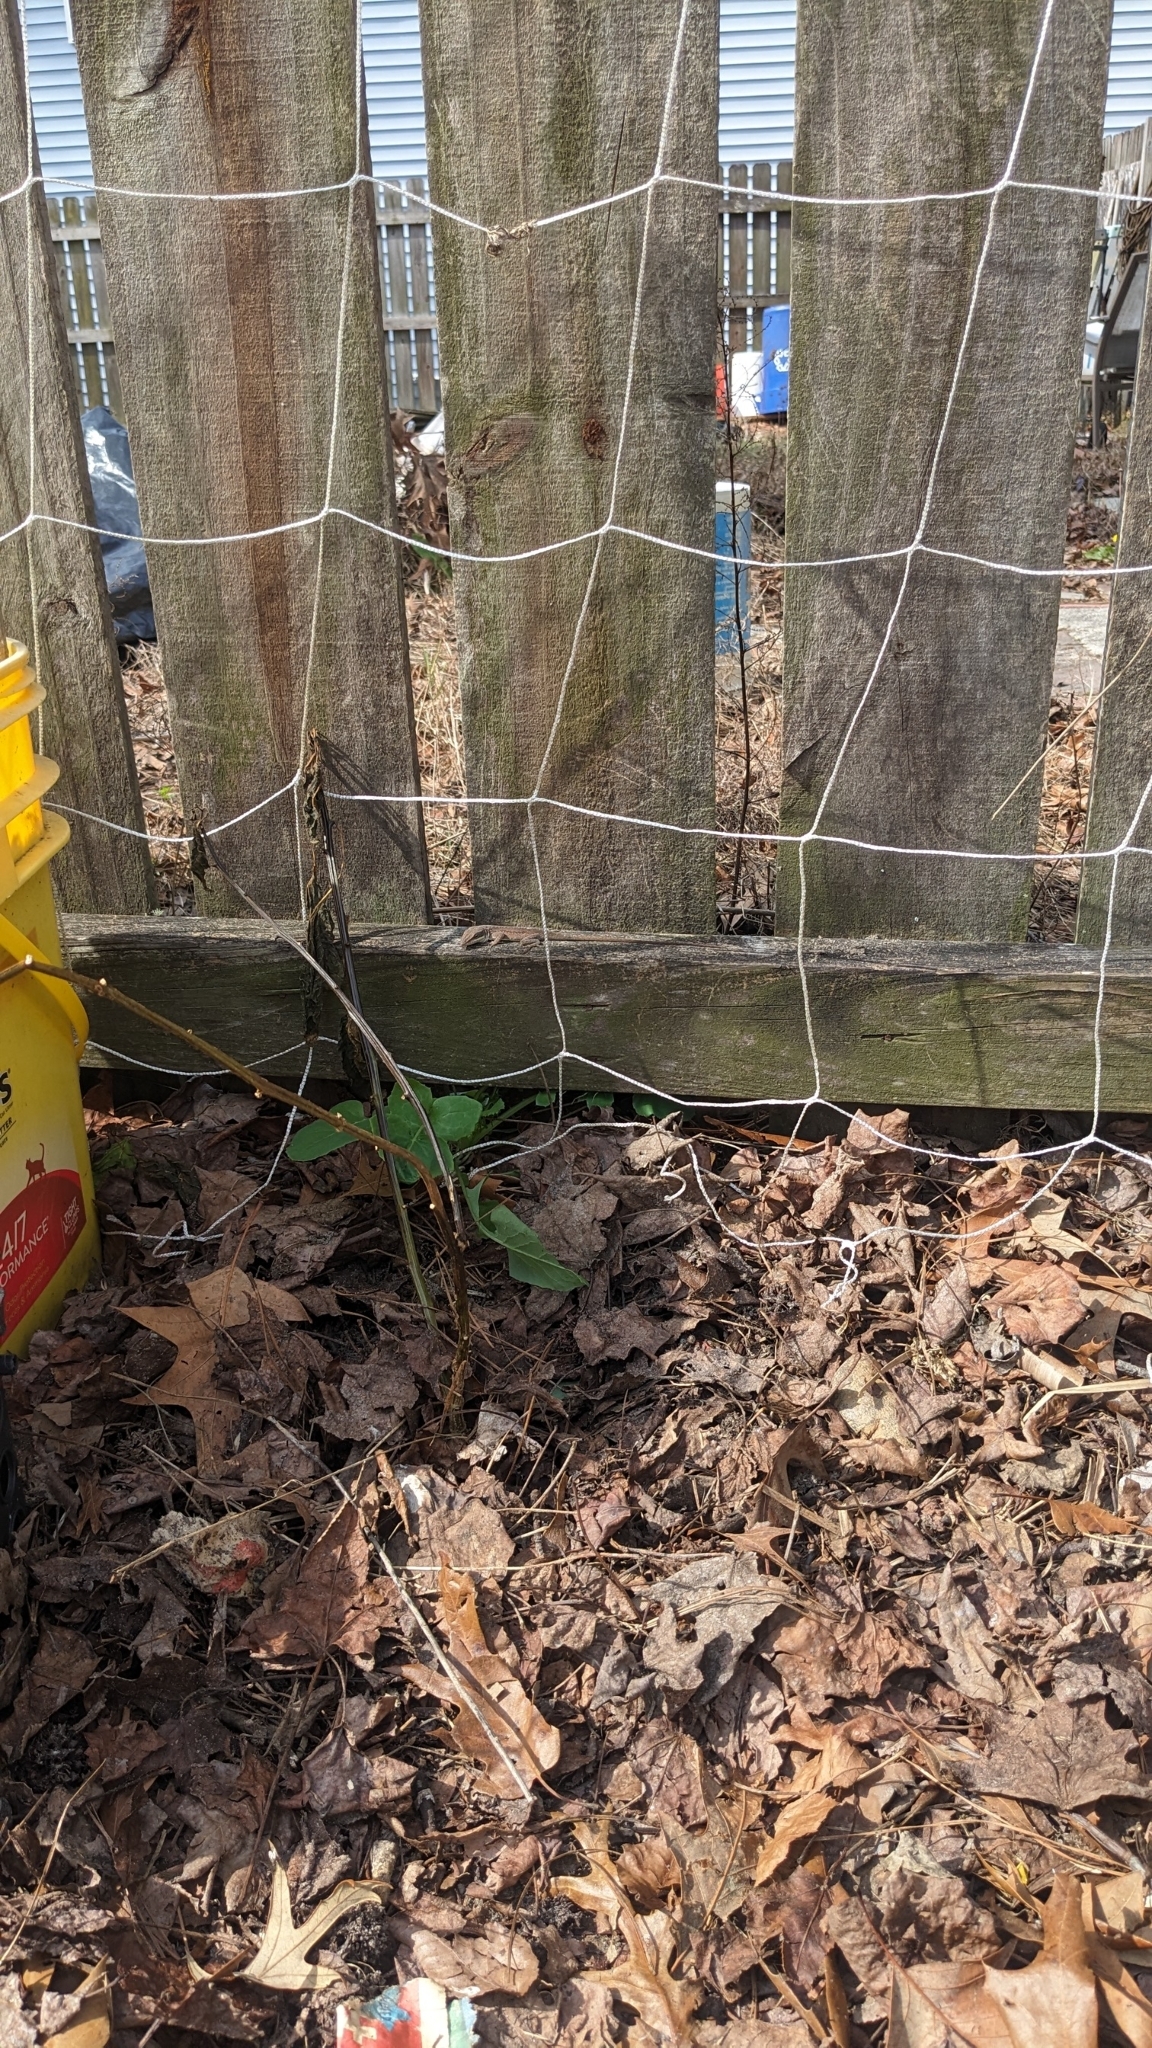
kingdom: Animalia
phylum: Chordata
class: Squamata
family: Dactyloidae
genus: Anolis
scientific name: Anolis carolinensis
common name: Green anole
